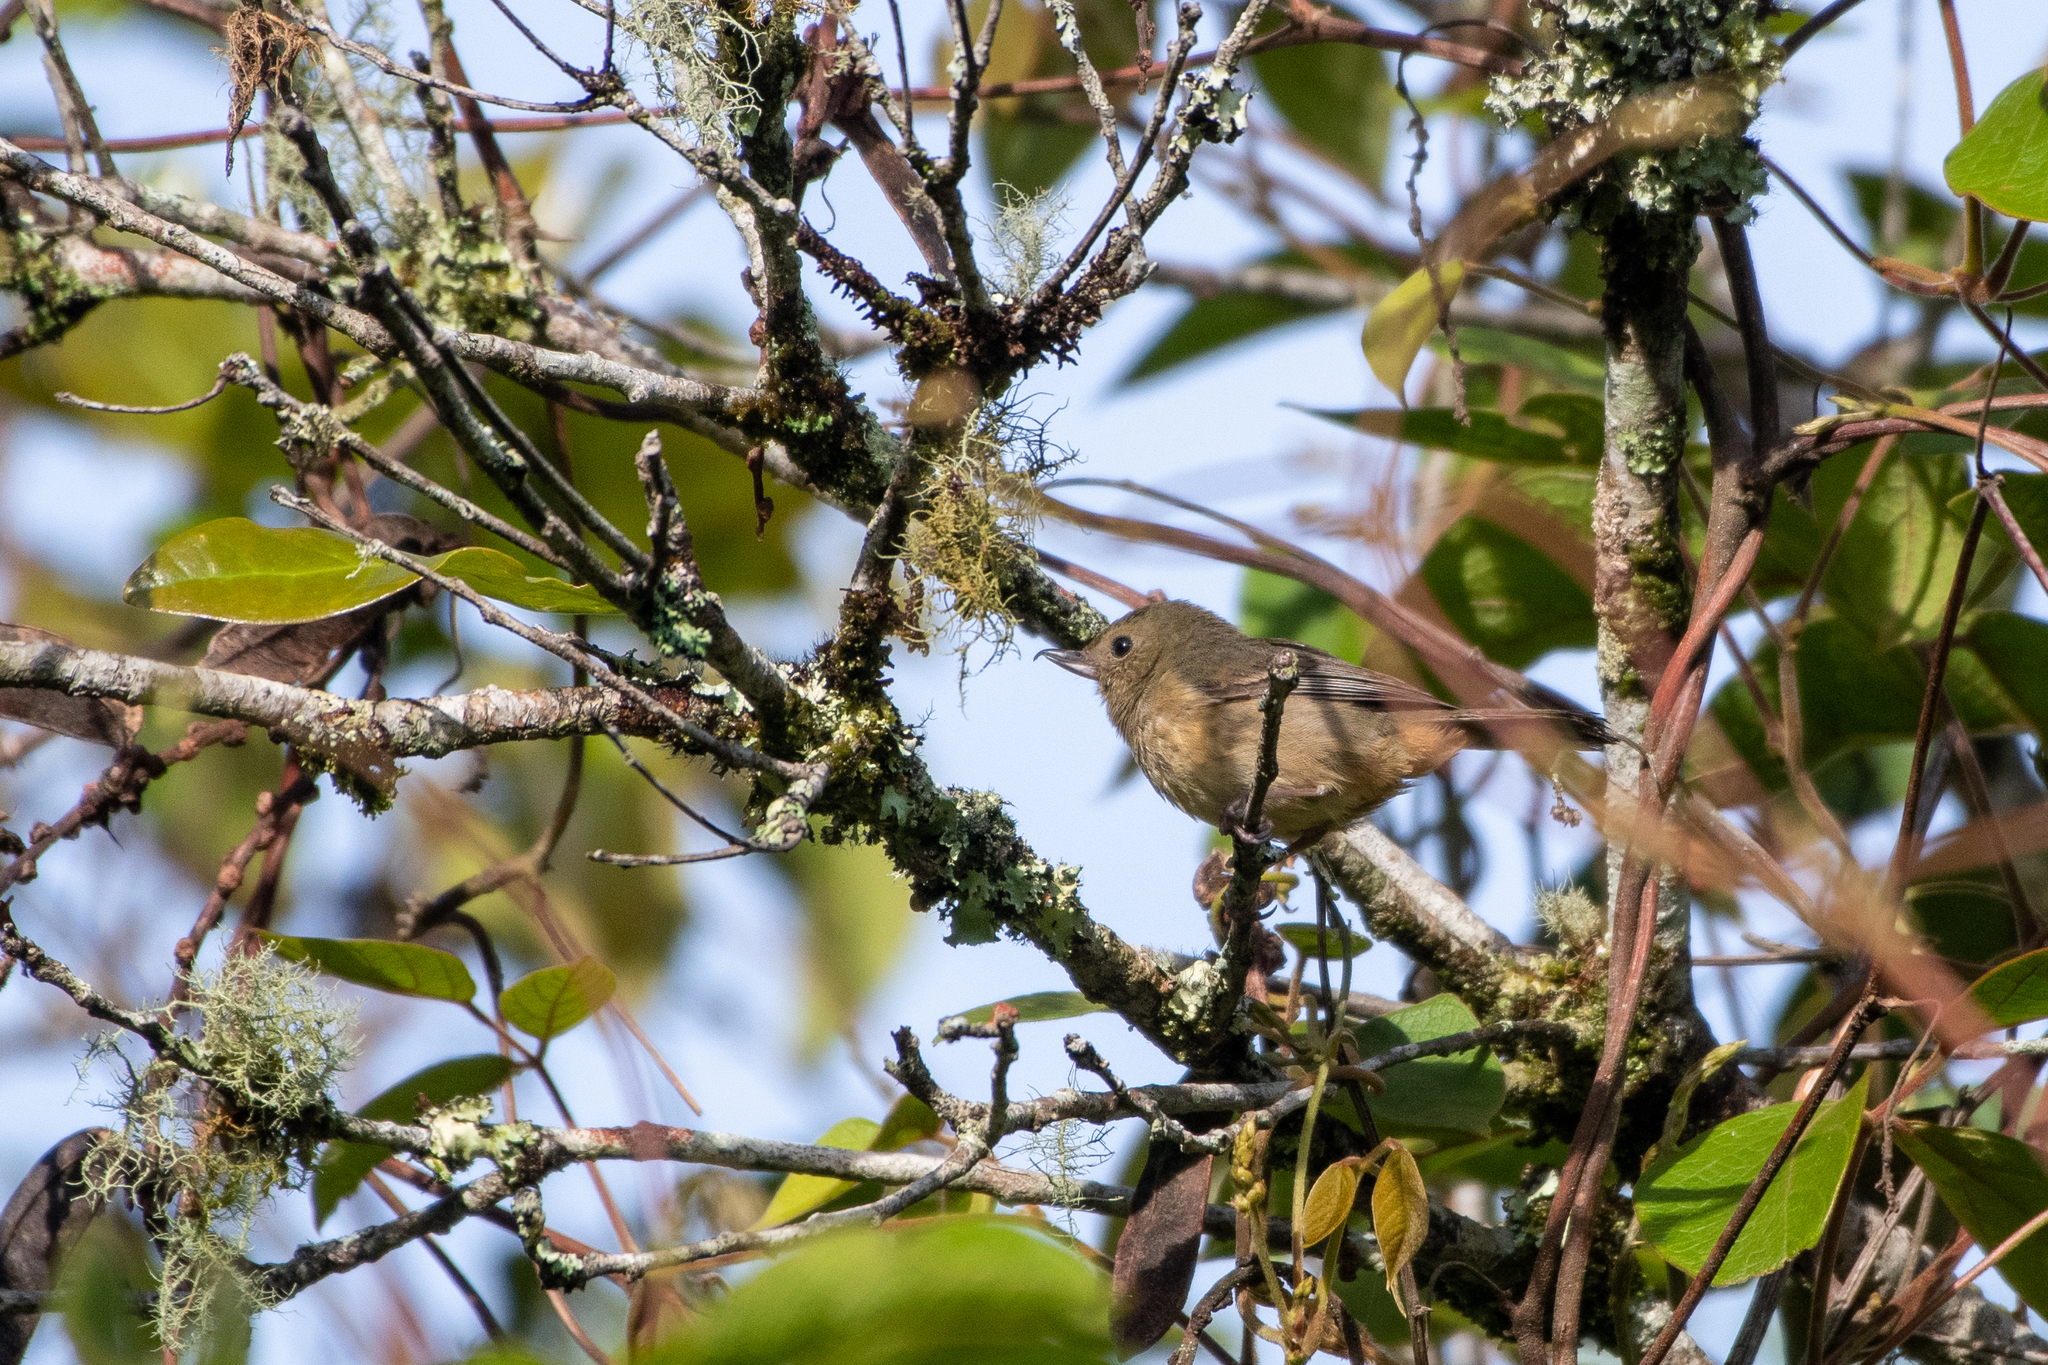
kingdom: Animalia
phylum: Chordata
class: Aves
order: Passeriformes
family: Thraupidae
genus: Diglossa
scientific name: Diglossa baritula
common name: Cinnamon-bellied flowerpiercer
